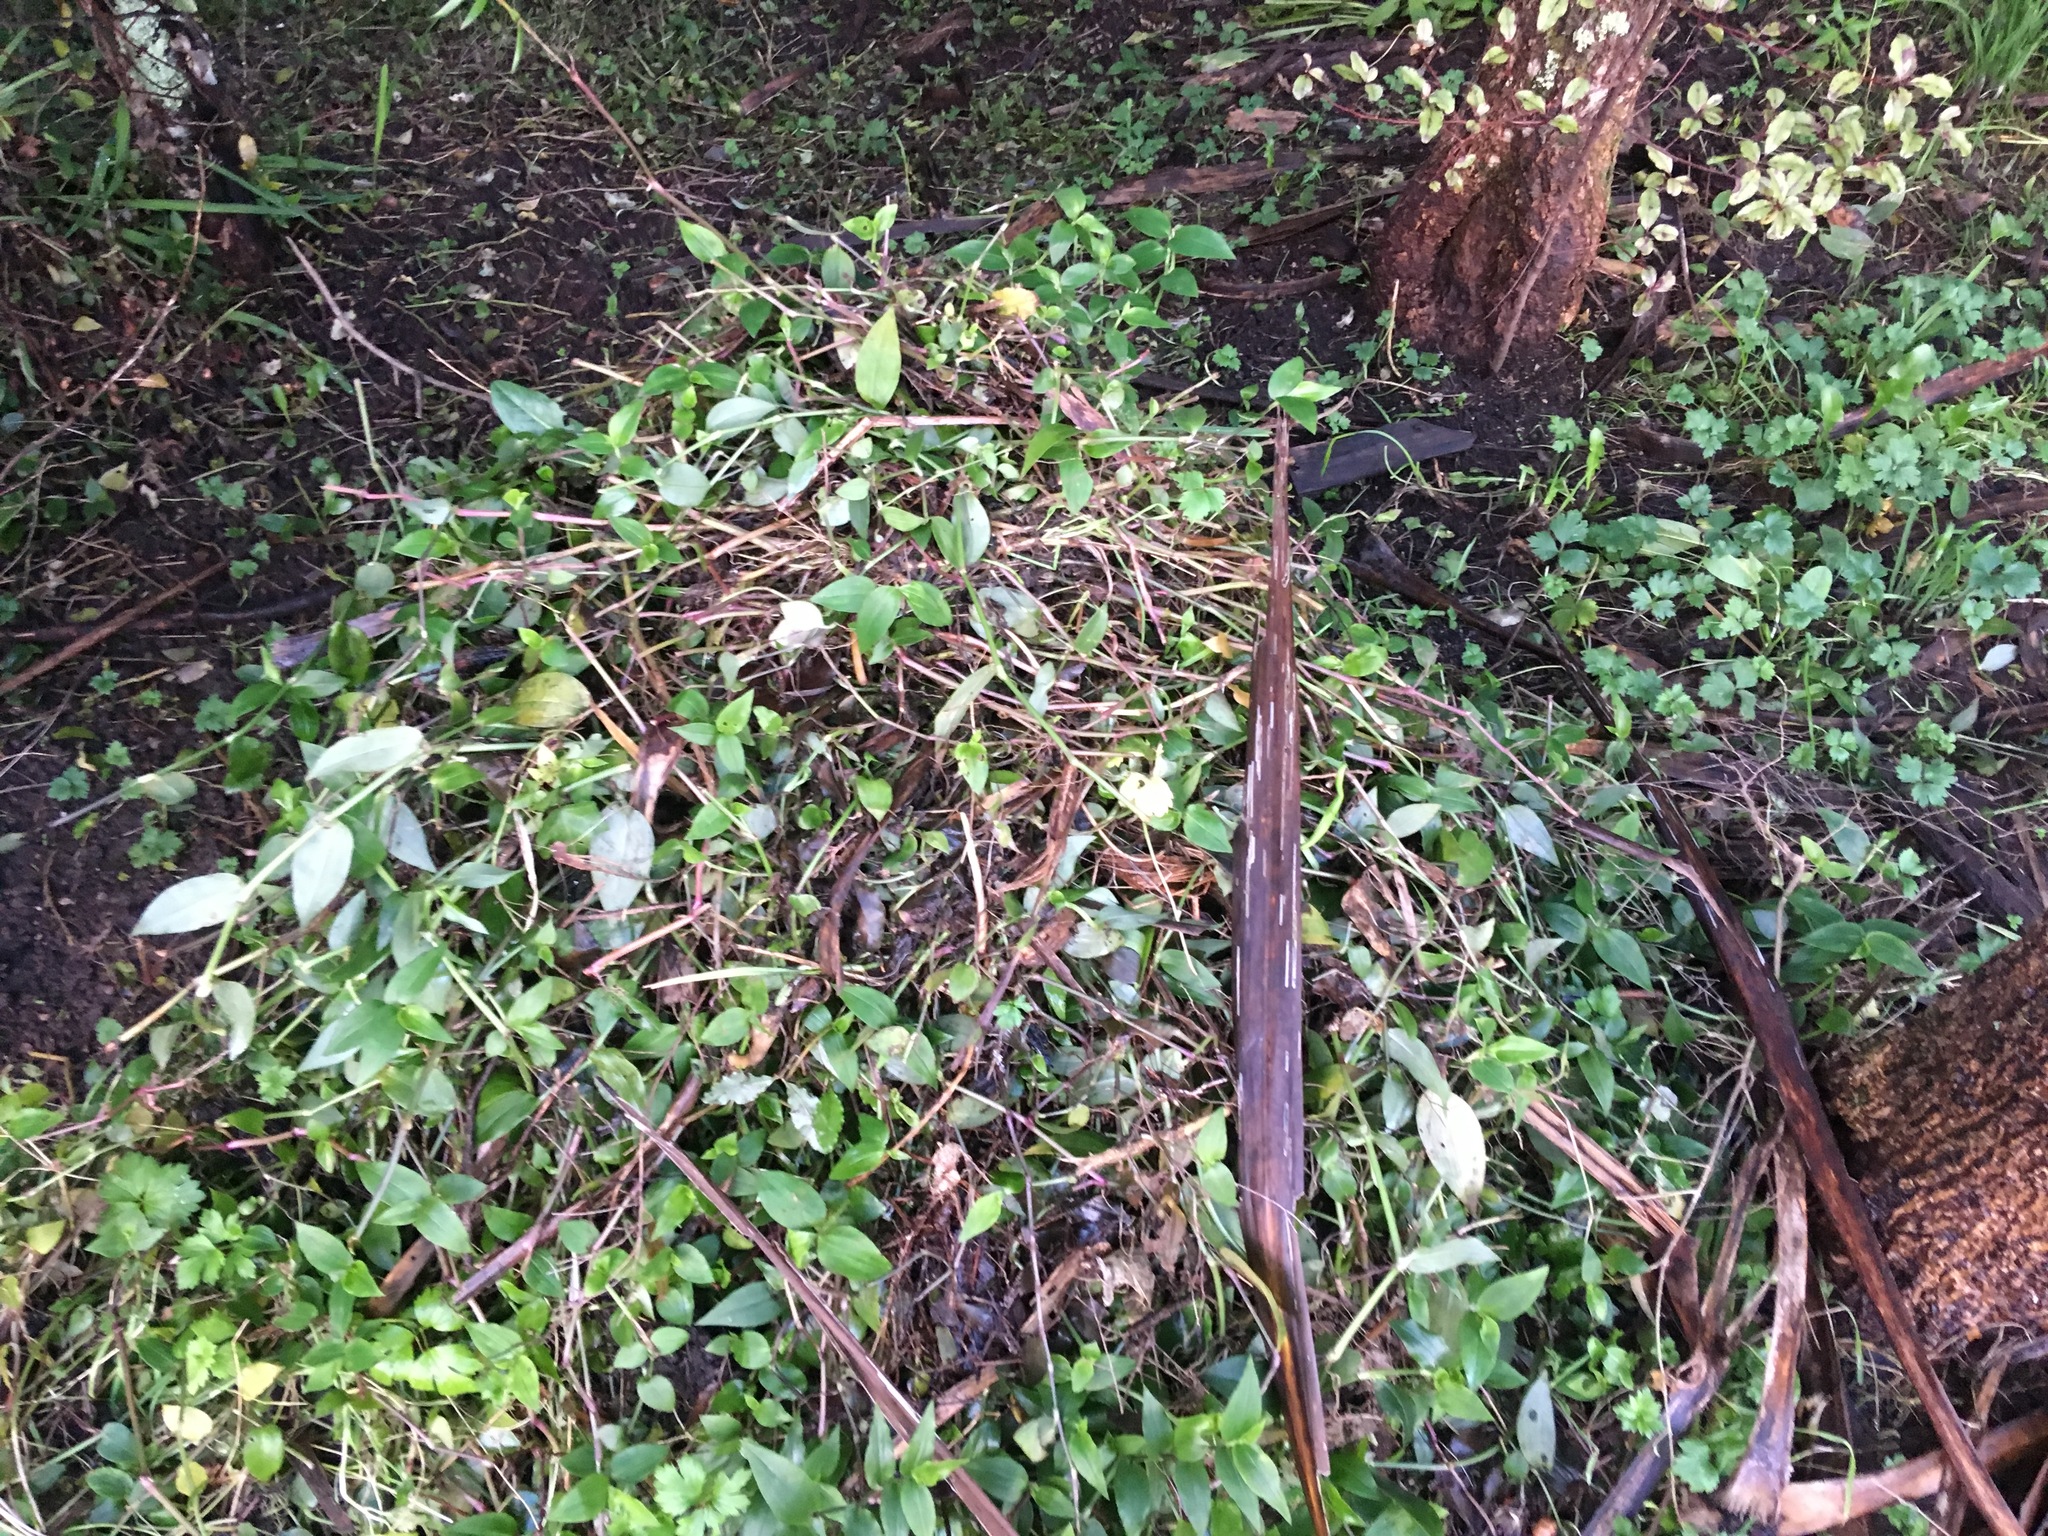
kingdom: Plantae
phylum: Tracheophyta
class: Liliopsida
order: Commelinales
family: Commelinaceae
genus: Tradescantia
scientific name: Tradescantia fluminensis
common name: Wandering-jew
